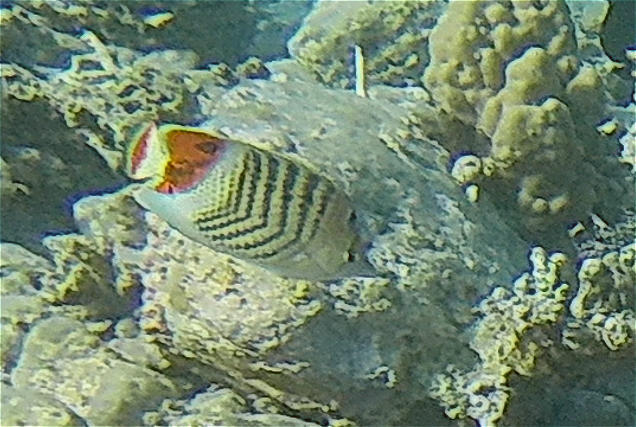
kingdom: Animalia
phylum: Chordata
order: Perciformes
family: Chaetodontidae
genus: Chaetodon
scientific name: Chaetodon paucifasciatus
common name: Crown butterflyfish
